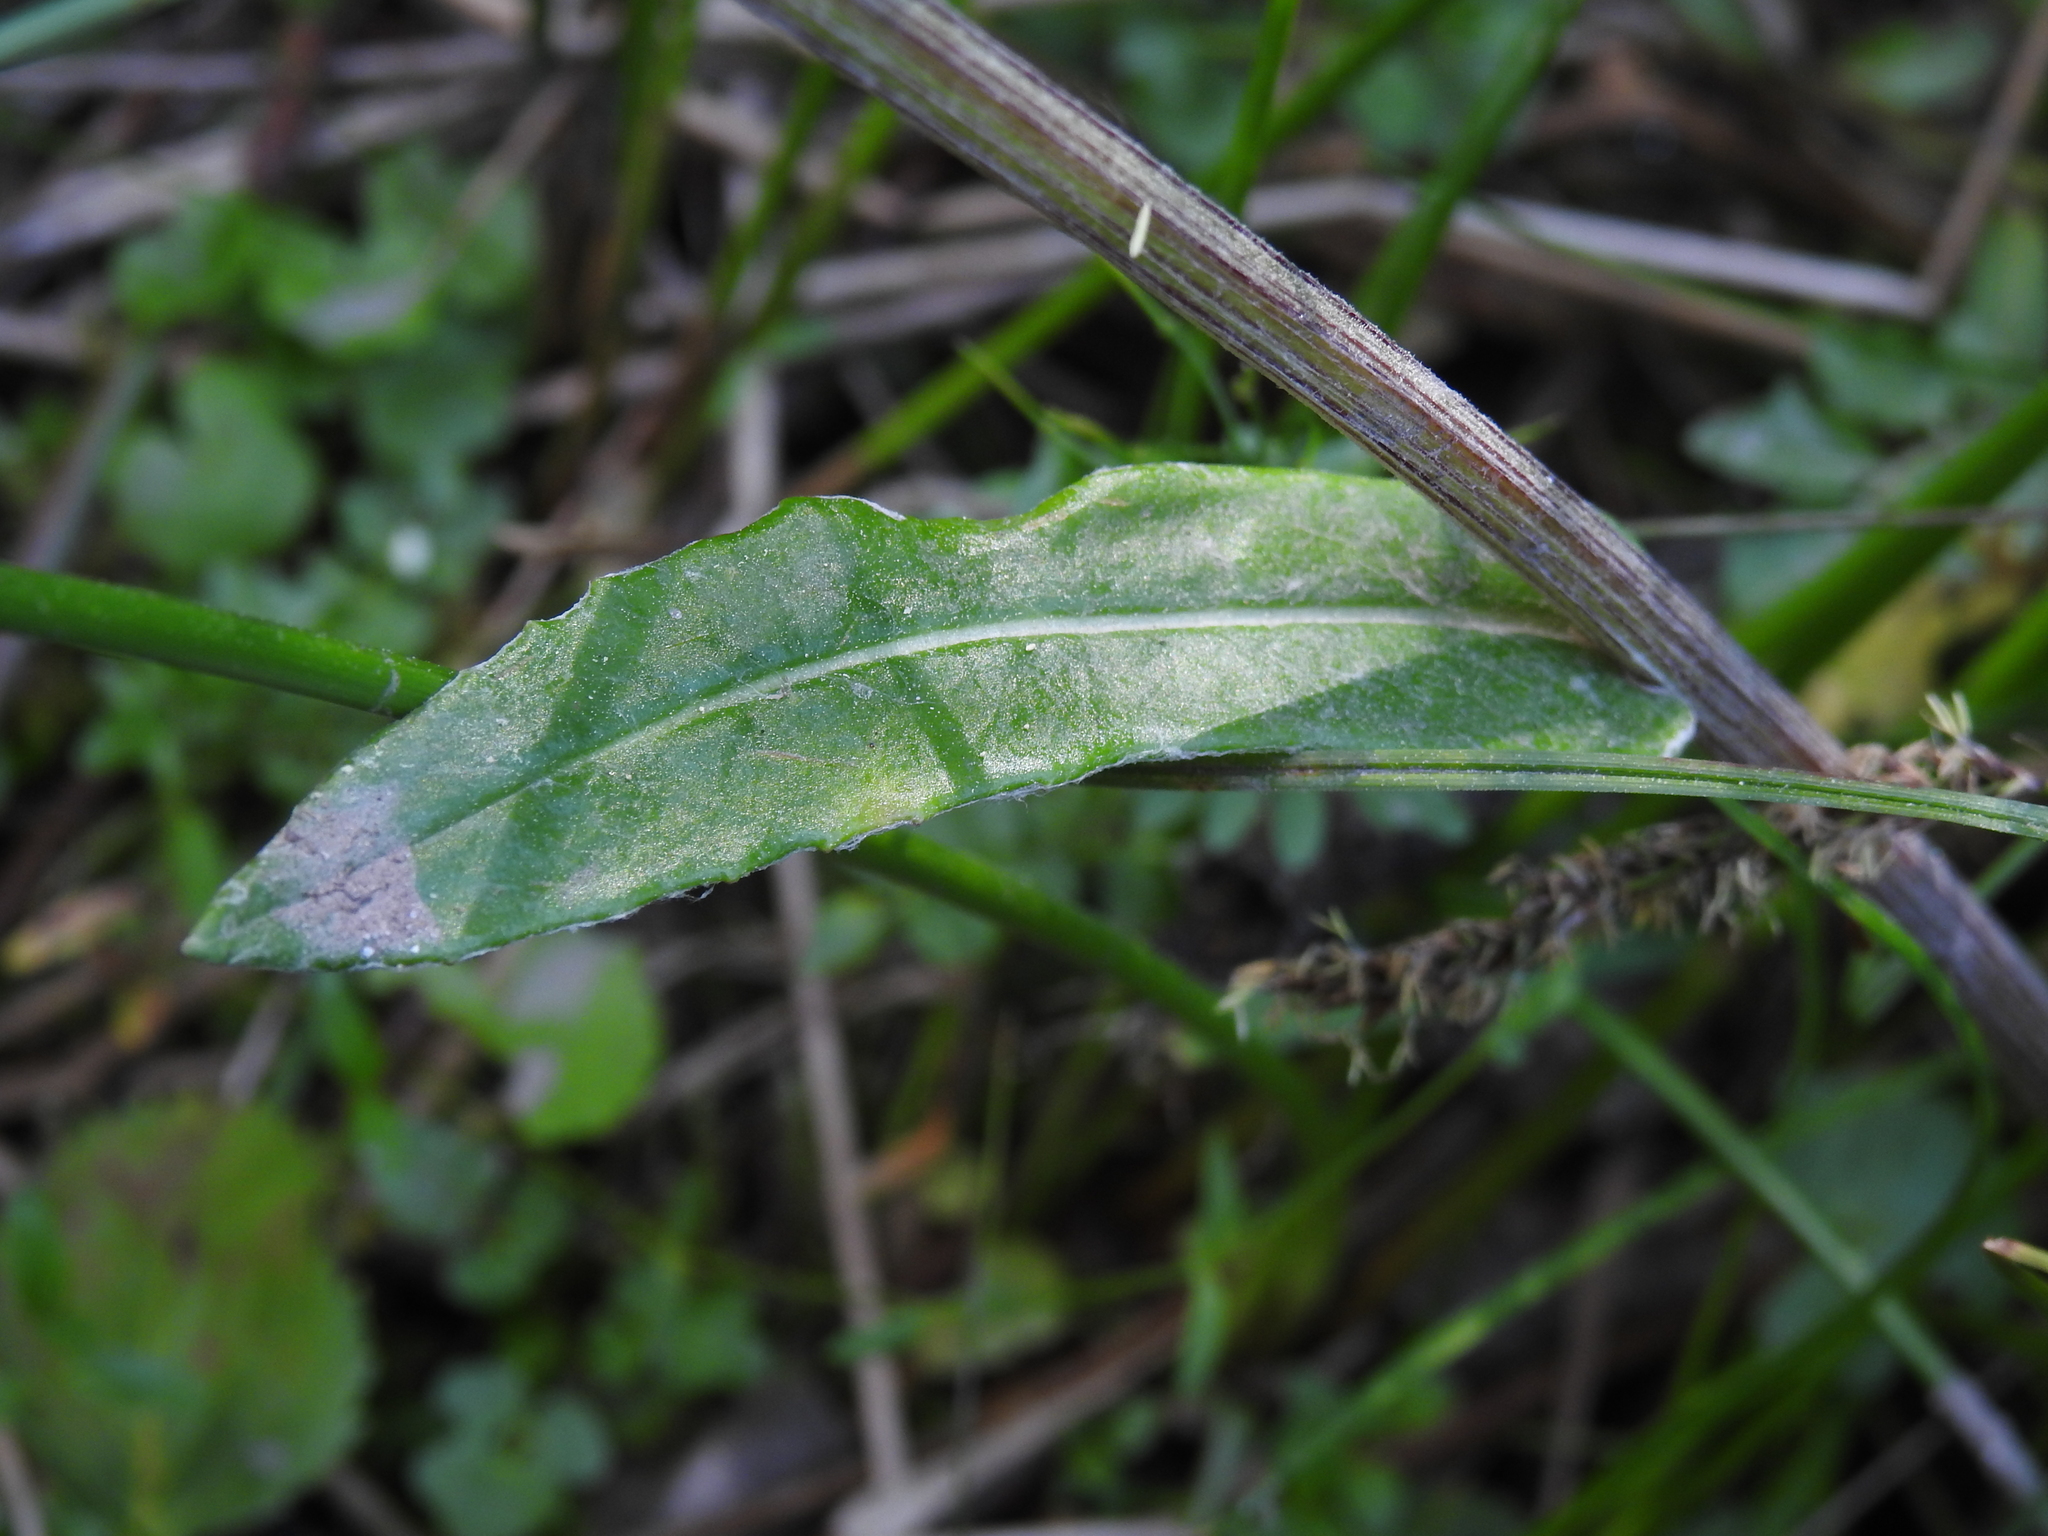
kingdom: Plantae
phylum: Tracheophyta
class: Magnoliopsida
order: Asterales
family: Asteraceae
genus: Tephroseris
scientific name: Tephroseris helenitis
